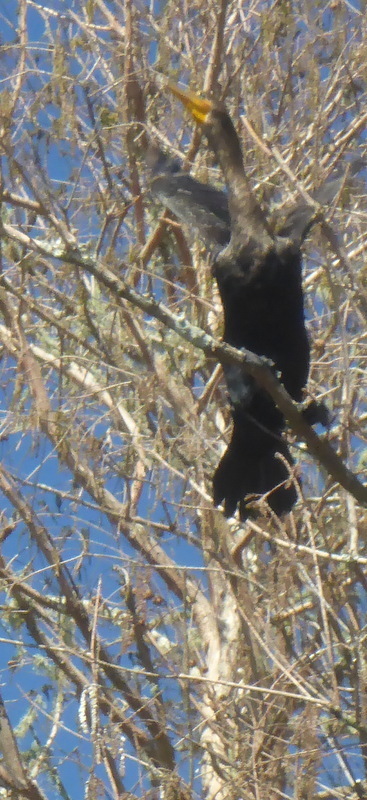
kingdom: Animalia
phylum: Chordata
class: Aves
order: Suliformes
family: Phalacrocoracidae
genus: Phalacrocorax
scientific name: Phalacrocorax auritus
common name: Double-crested cormorant
